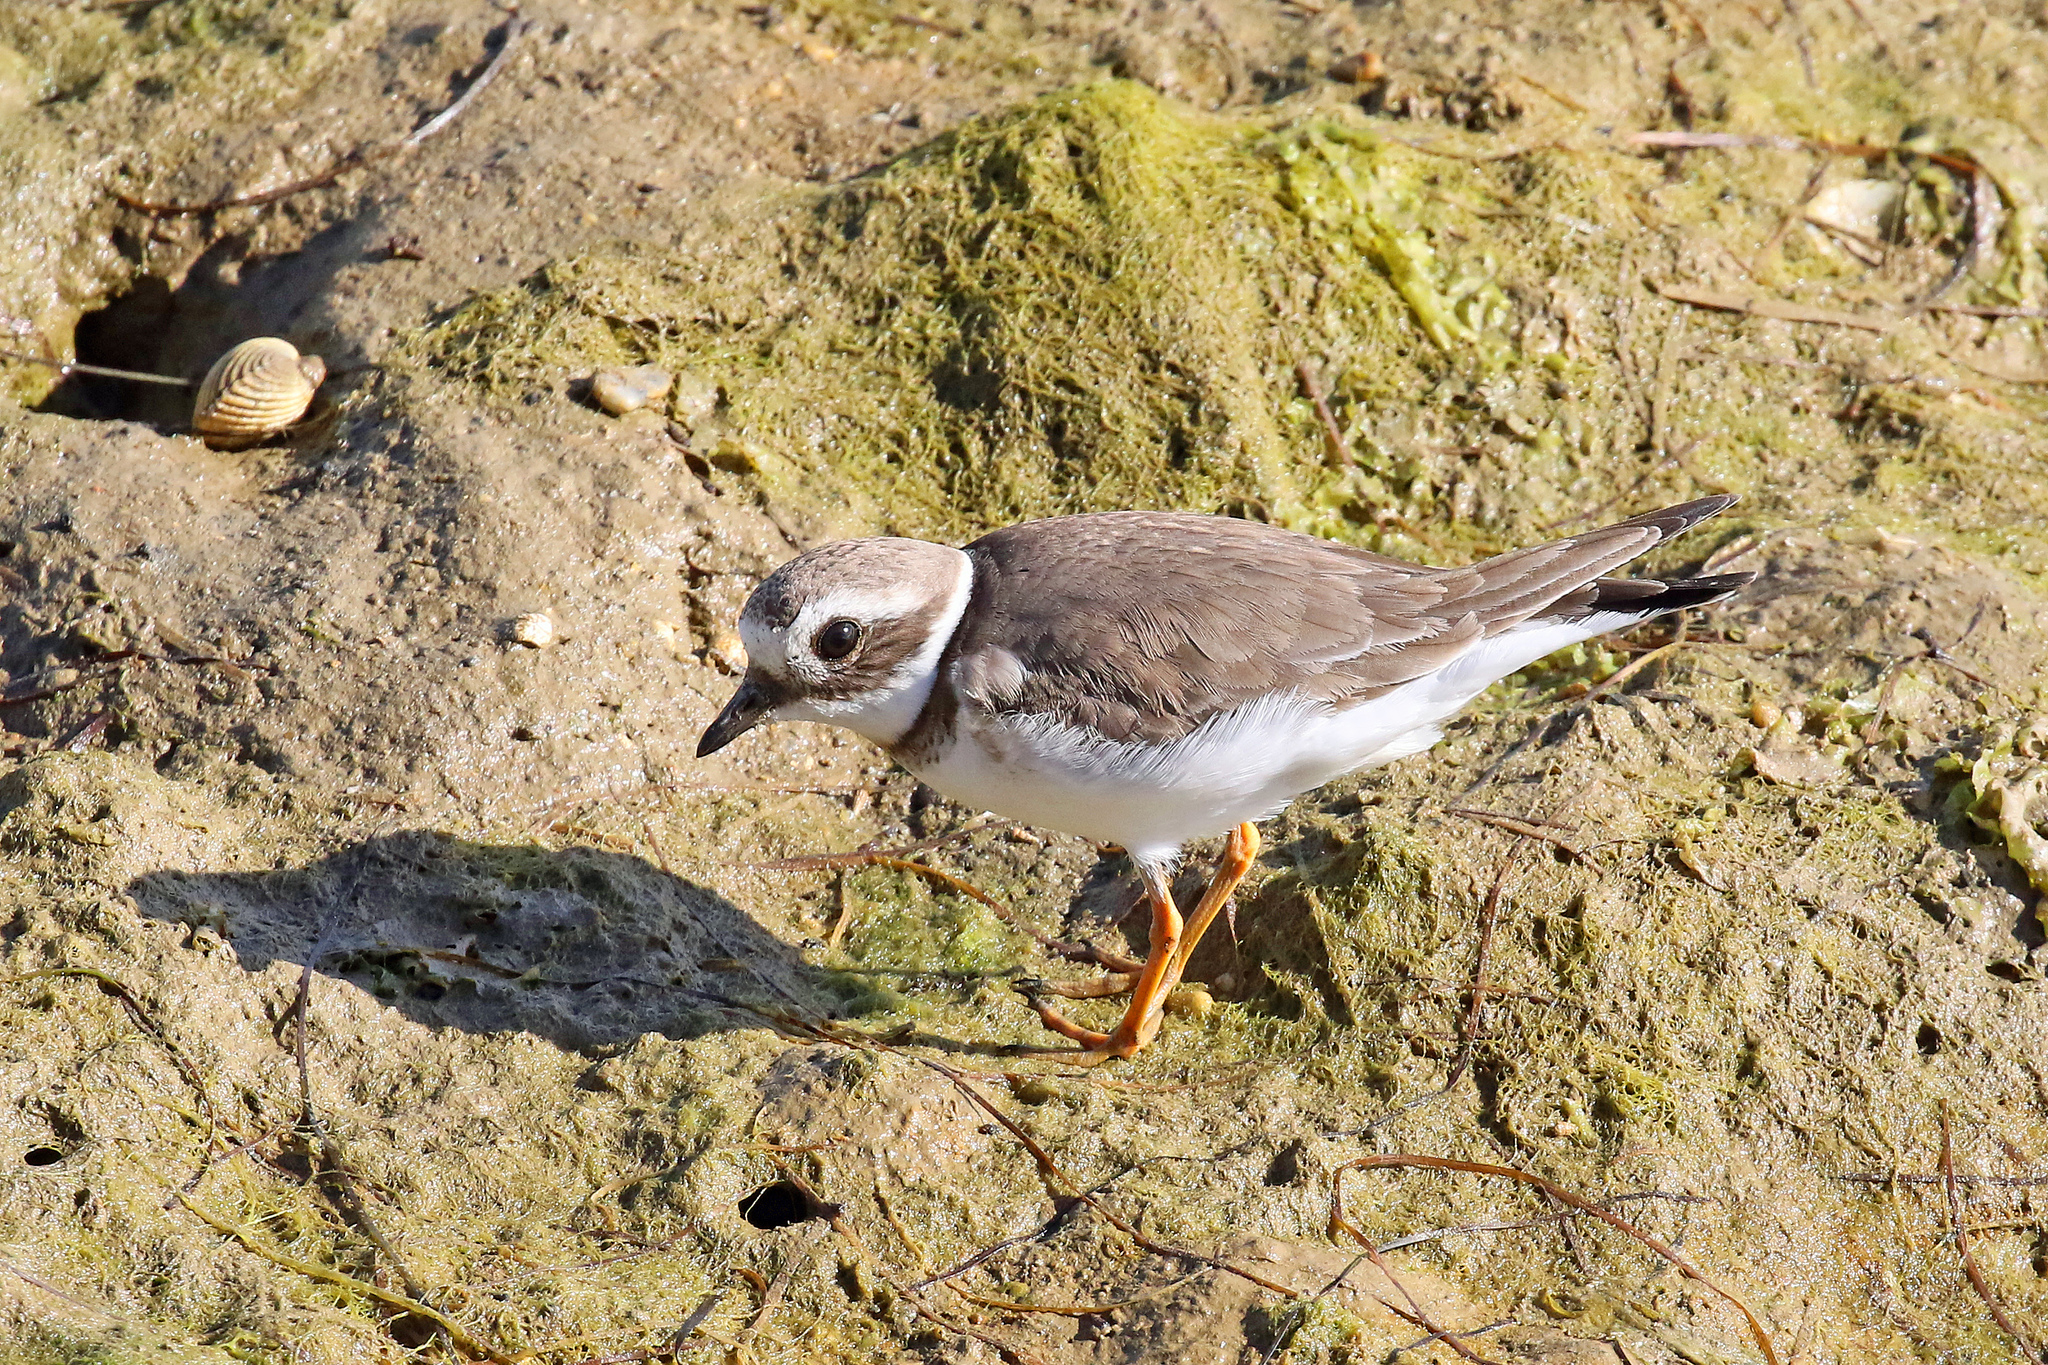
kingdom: Animalia
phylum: Chordata
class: Aves
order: Charadriiformes
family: Charadriidae
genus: Charadrius
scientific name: Charadrius hiaticula
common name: Common ringed plover
